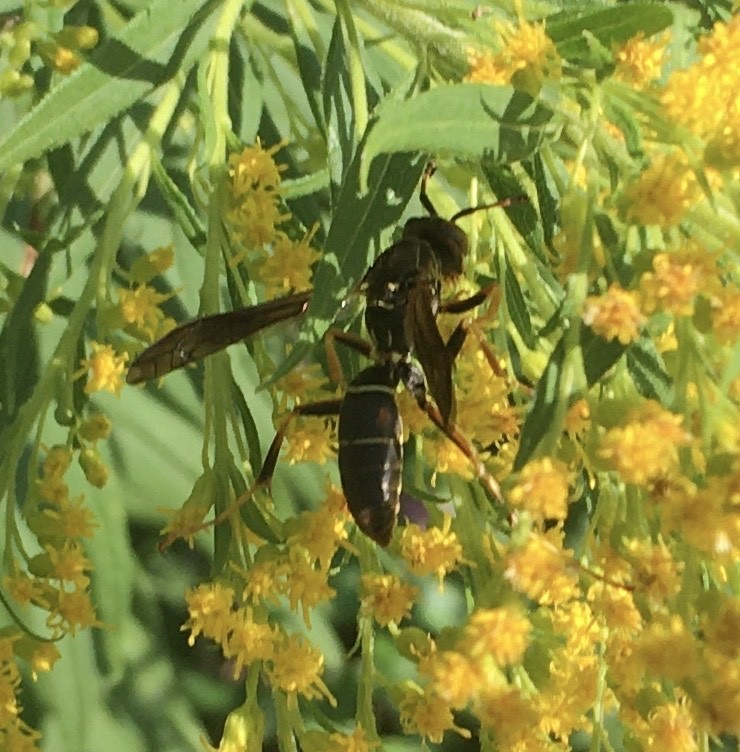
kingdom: Animalia
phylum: Arthropoda
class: Insecta
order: Hymenoptera
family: Eumenidae
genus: Polistes
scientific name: Polistes fuscatus
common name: Dark paper wasp
